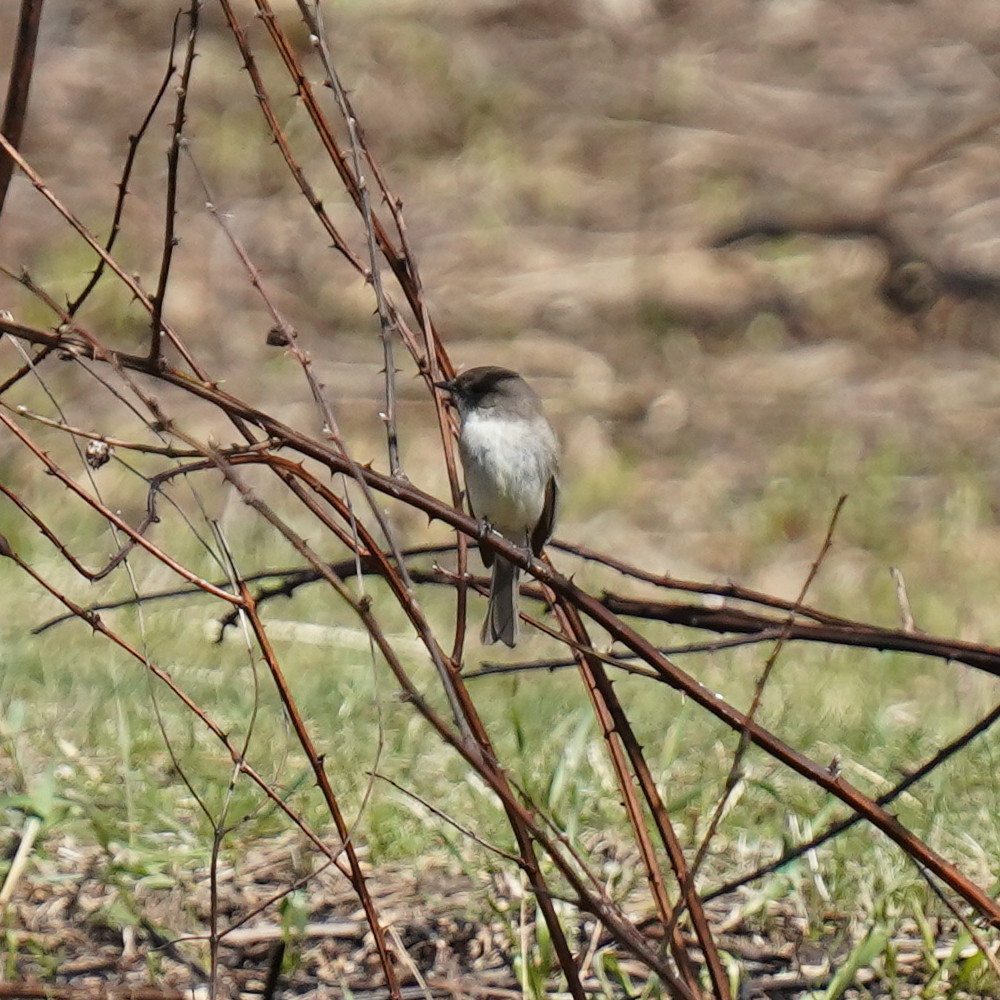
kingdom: Animalia
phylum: Chordata
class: Aves
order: Passeriformes
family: Tyrannidae
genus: Sayornis
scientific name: Sayornis phoebe
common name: Eastern phoebe
